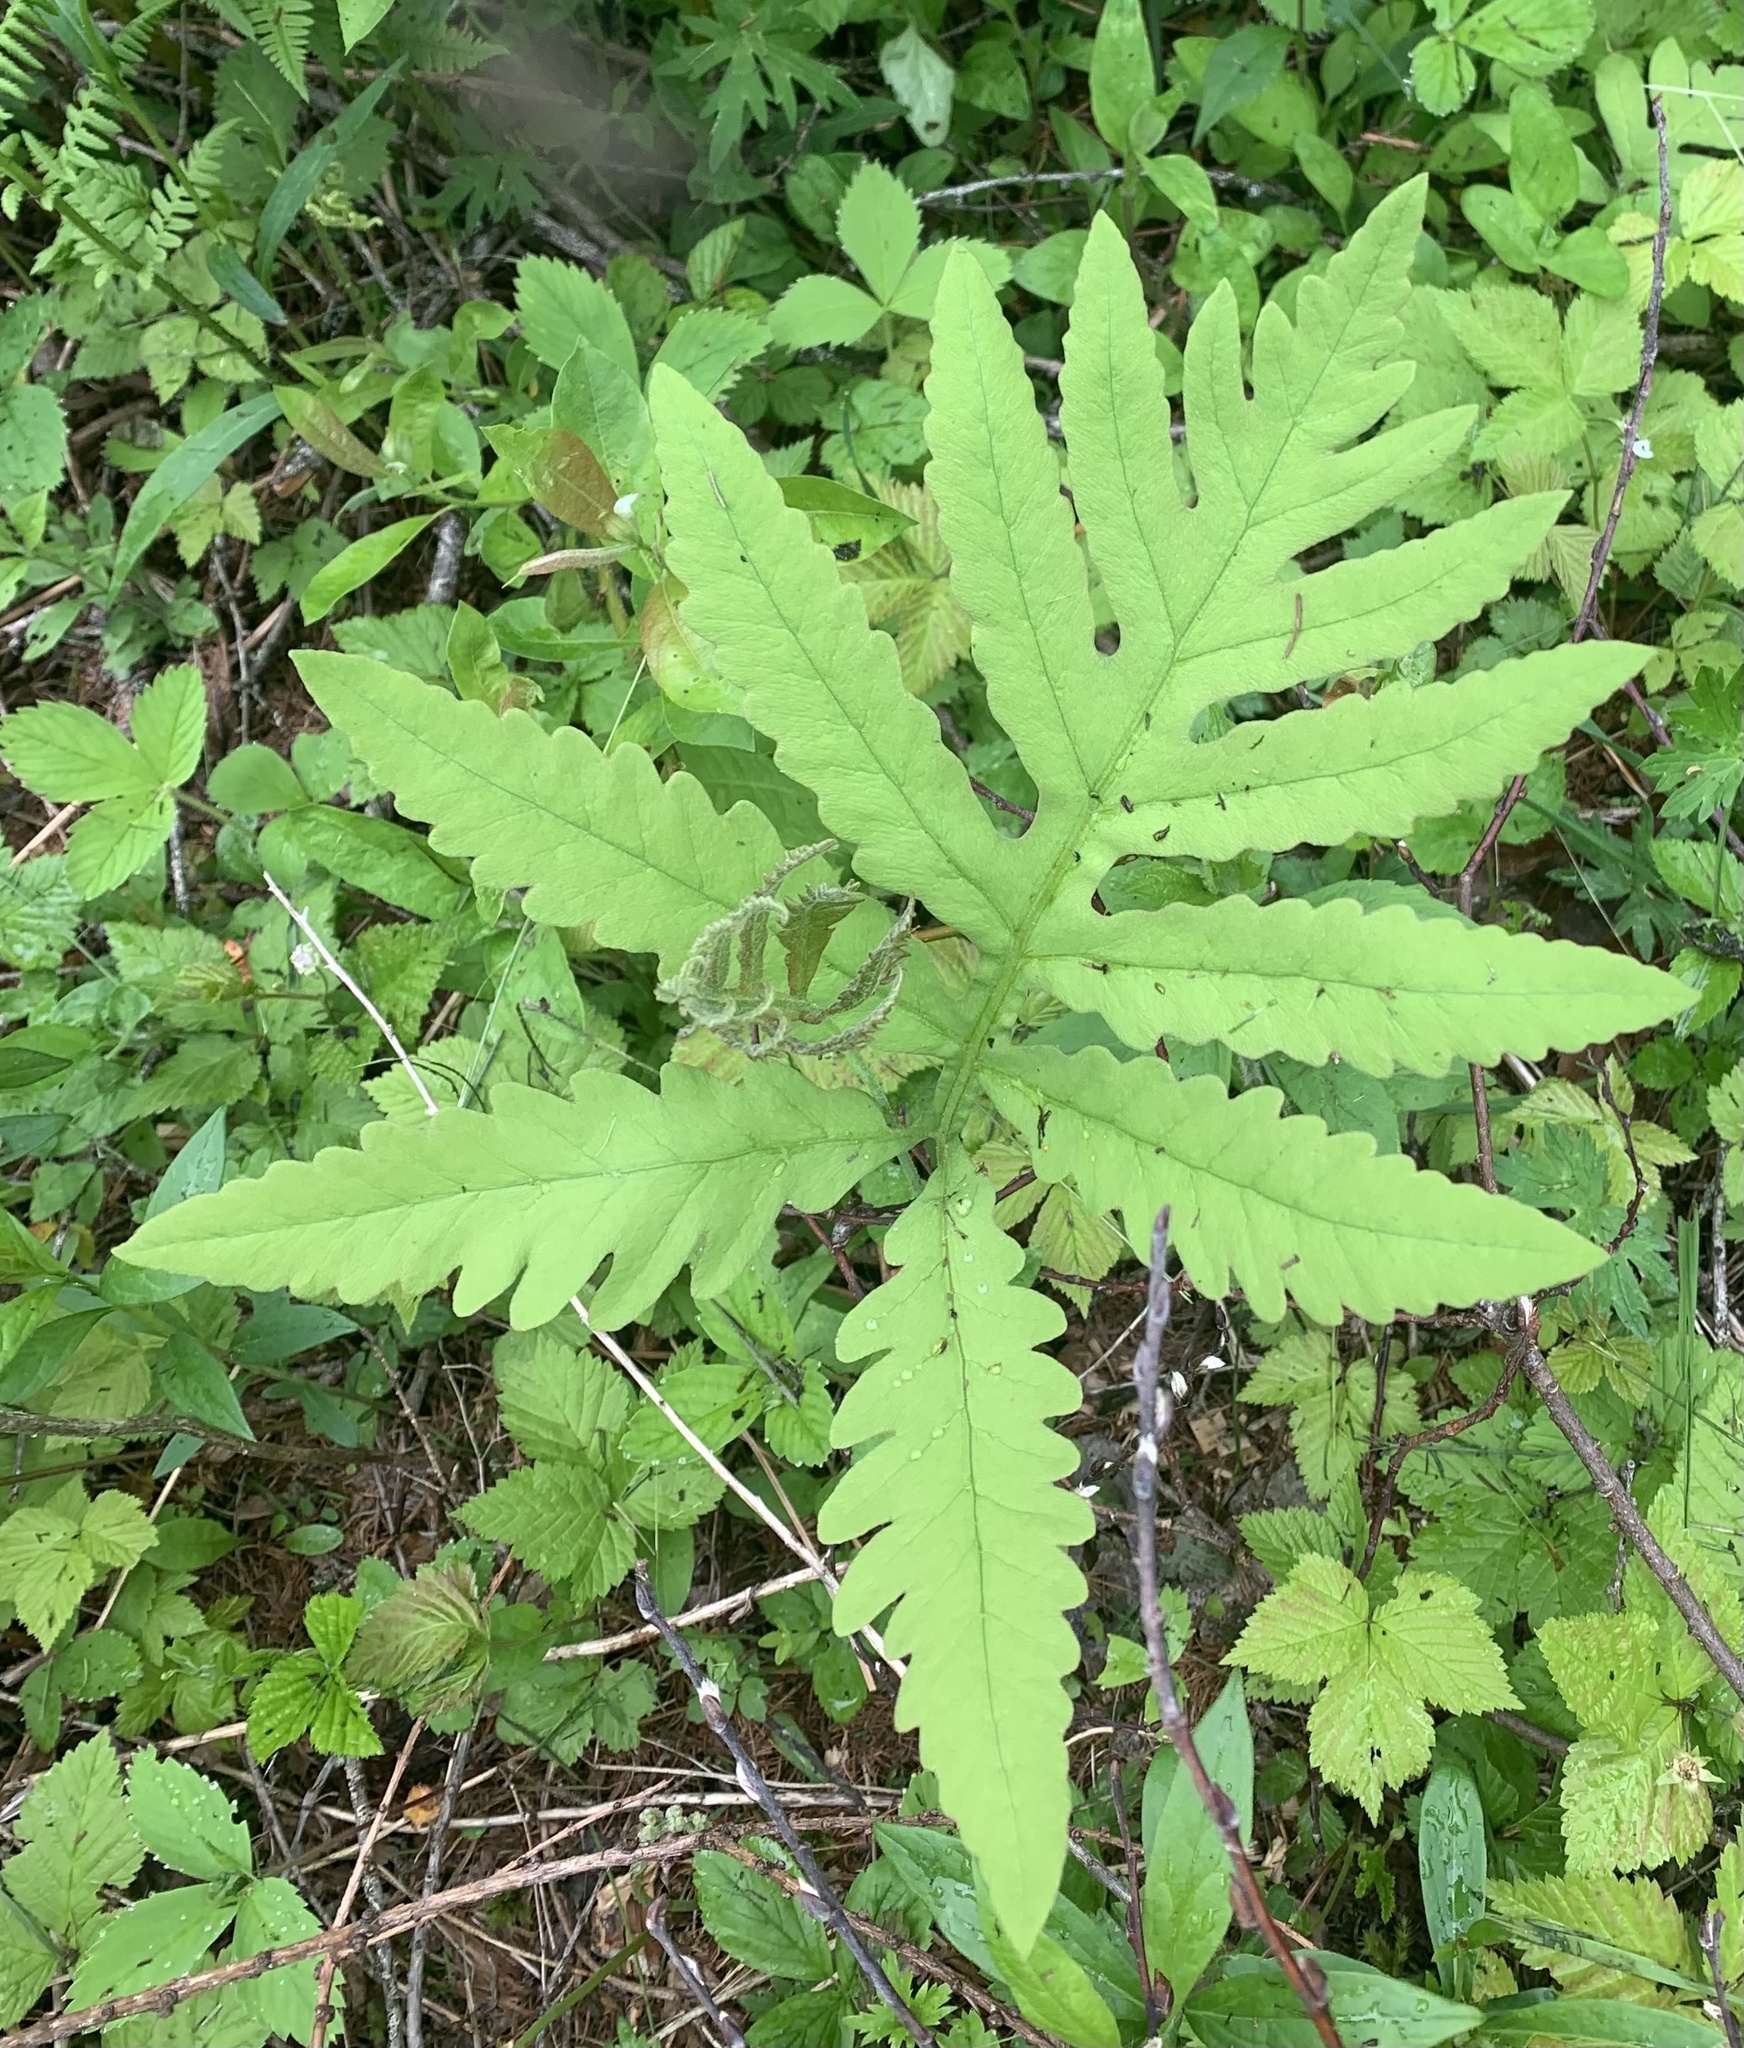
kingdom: Plantae
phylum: Tracheophyta
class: Polypodiopsida
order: Polypodiales
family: Onocleaceae
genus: Onoclea
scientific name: Onoclea sensibilis
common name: Sensitive fern
